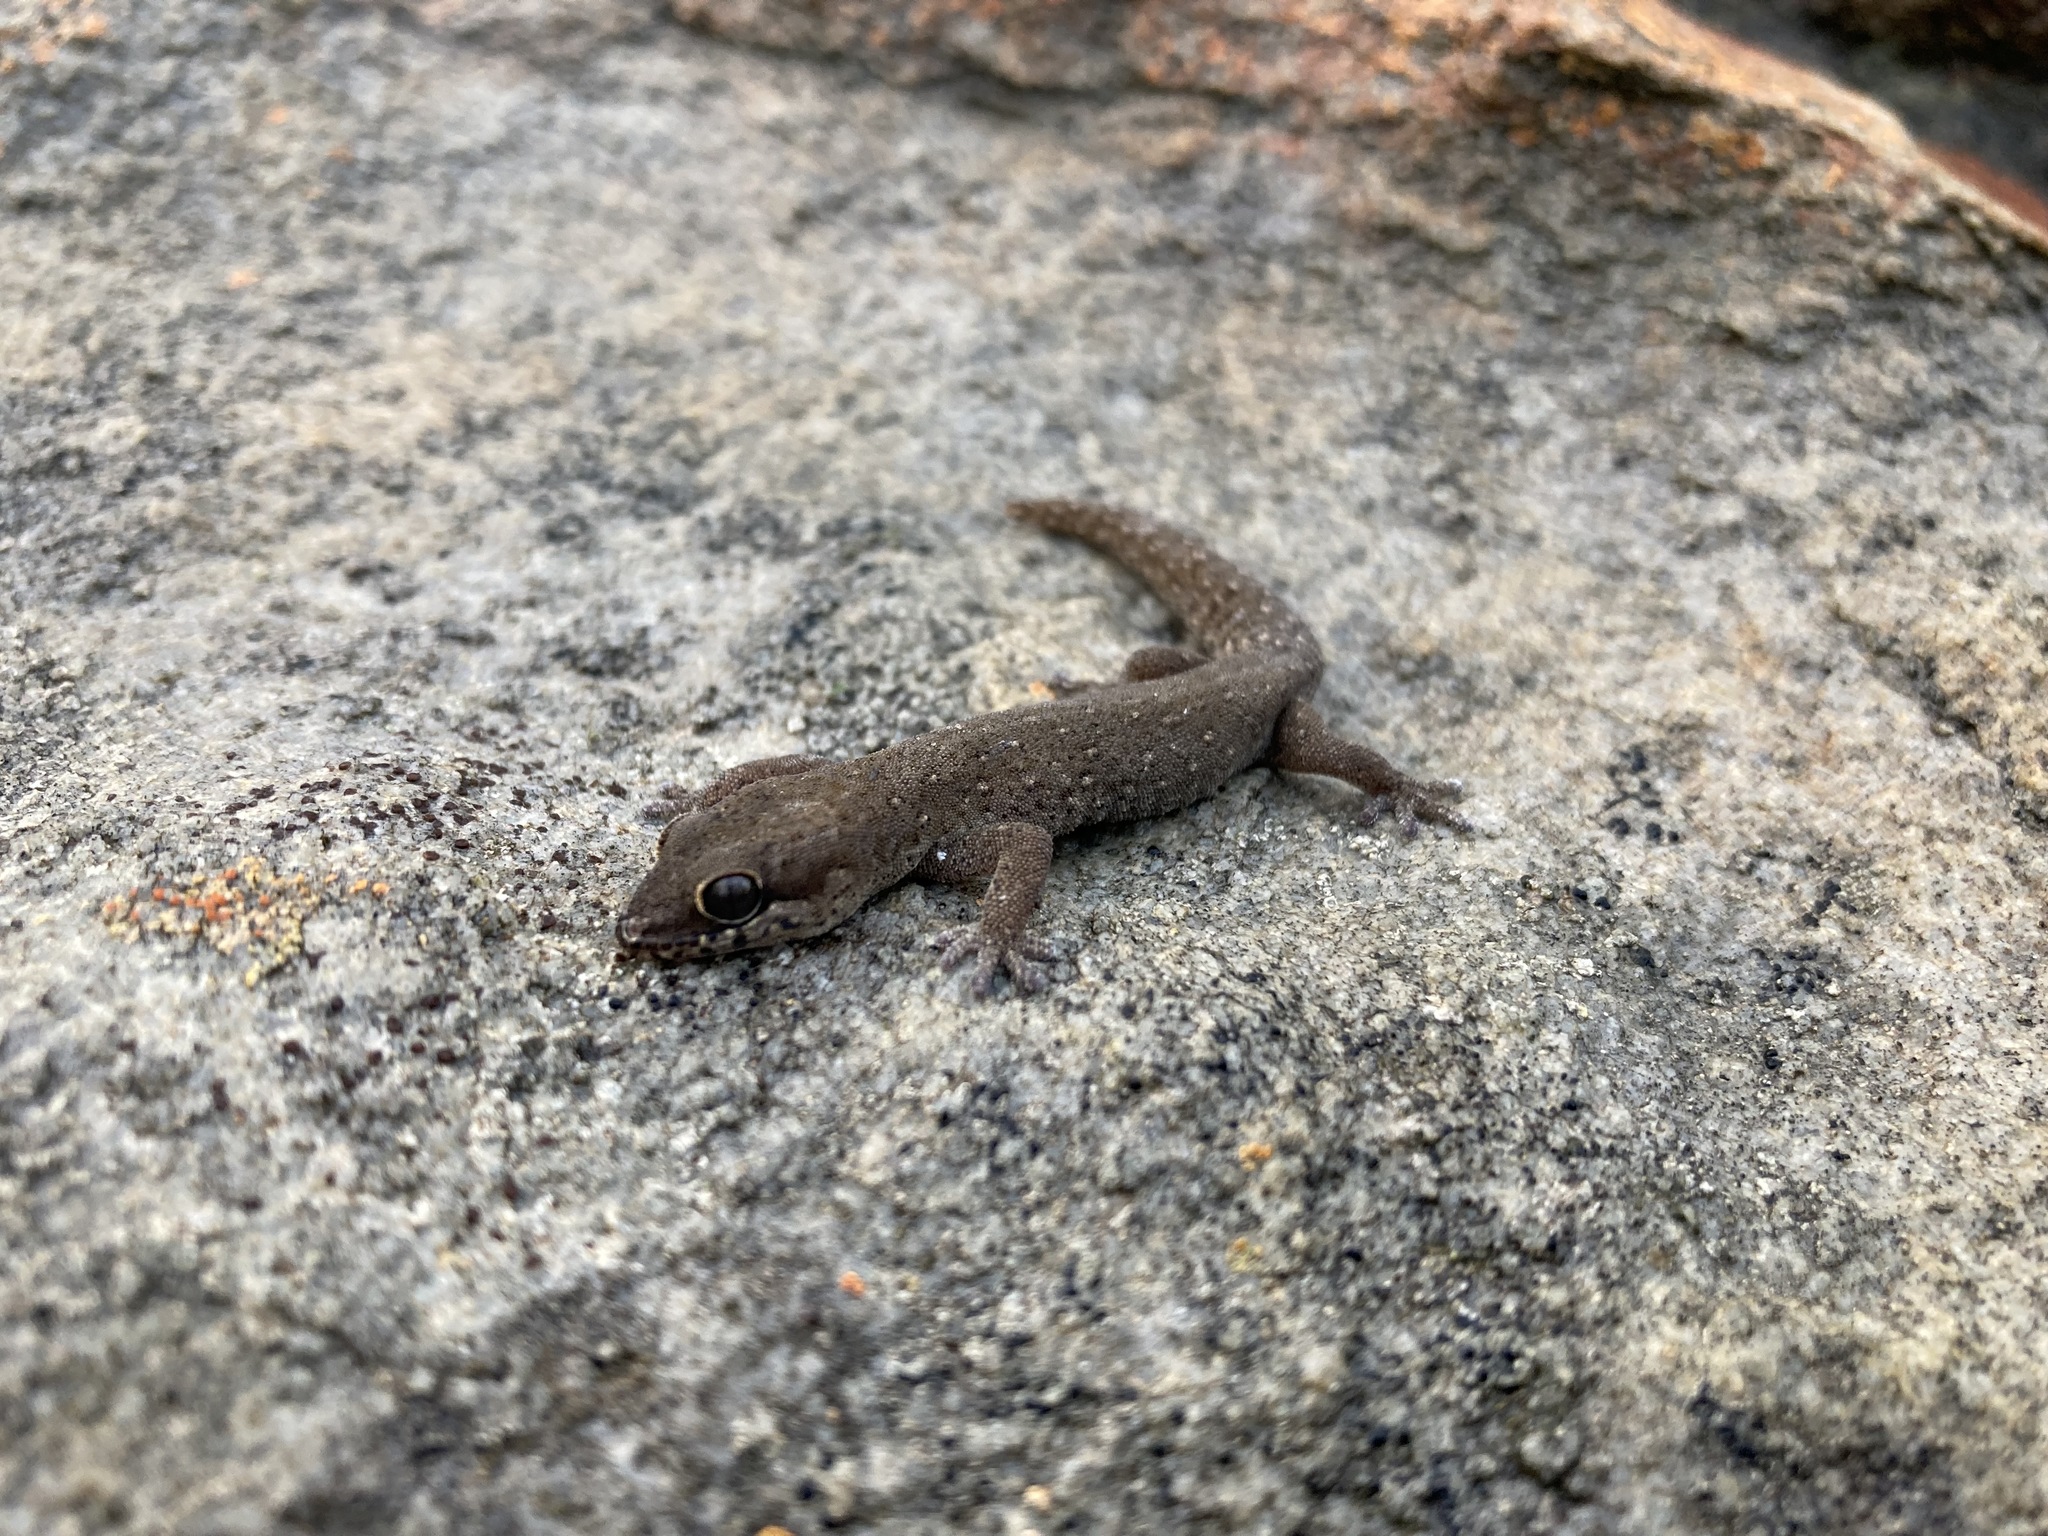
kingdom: Animalia
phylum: Chordata
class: Squamata
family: Gekkonidae
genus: Pachydactylus
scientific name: Pachydactylus geitje
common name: Ocellated thick-toed gecko
